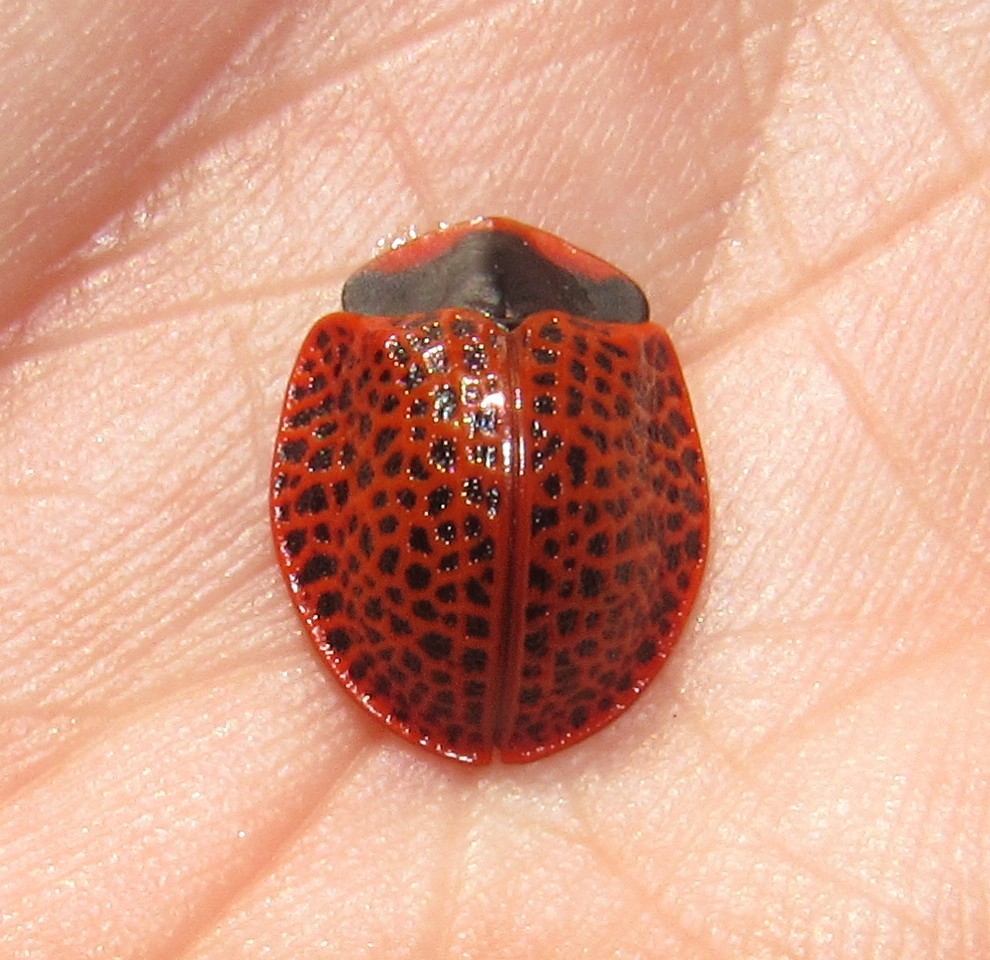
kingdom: Animalia
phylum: Arthropoda
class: Insecta
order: Coleoptera
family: Chrysomelidae
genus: Botanochara
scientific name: Botanochara impressa
